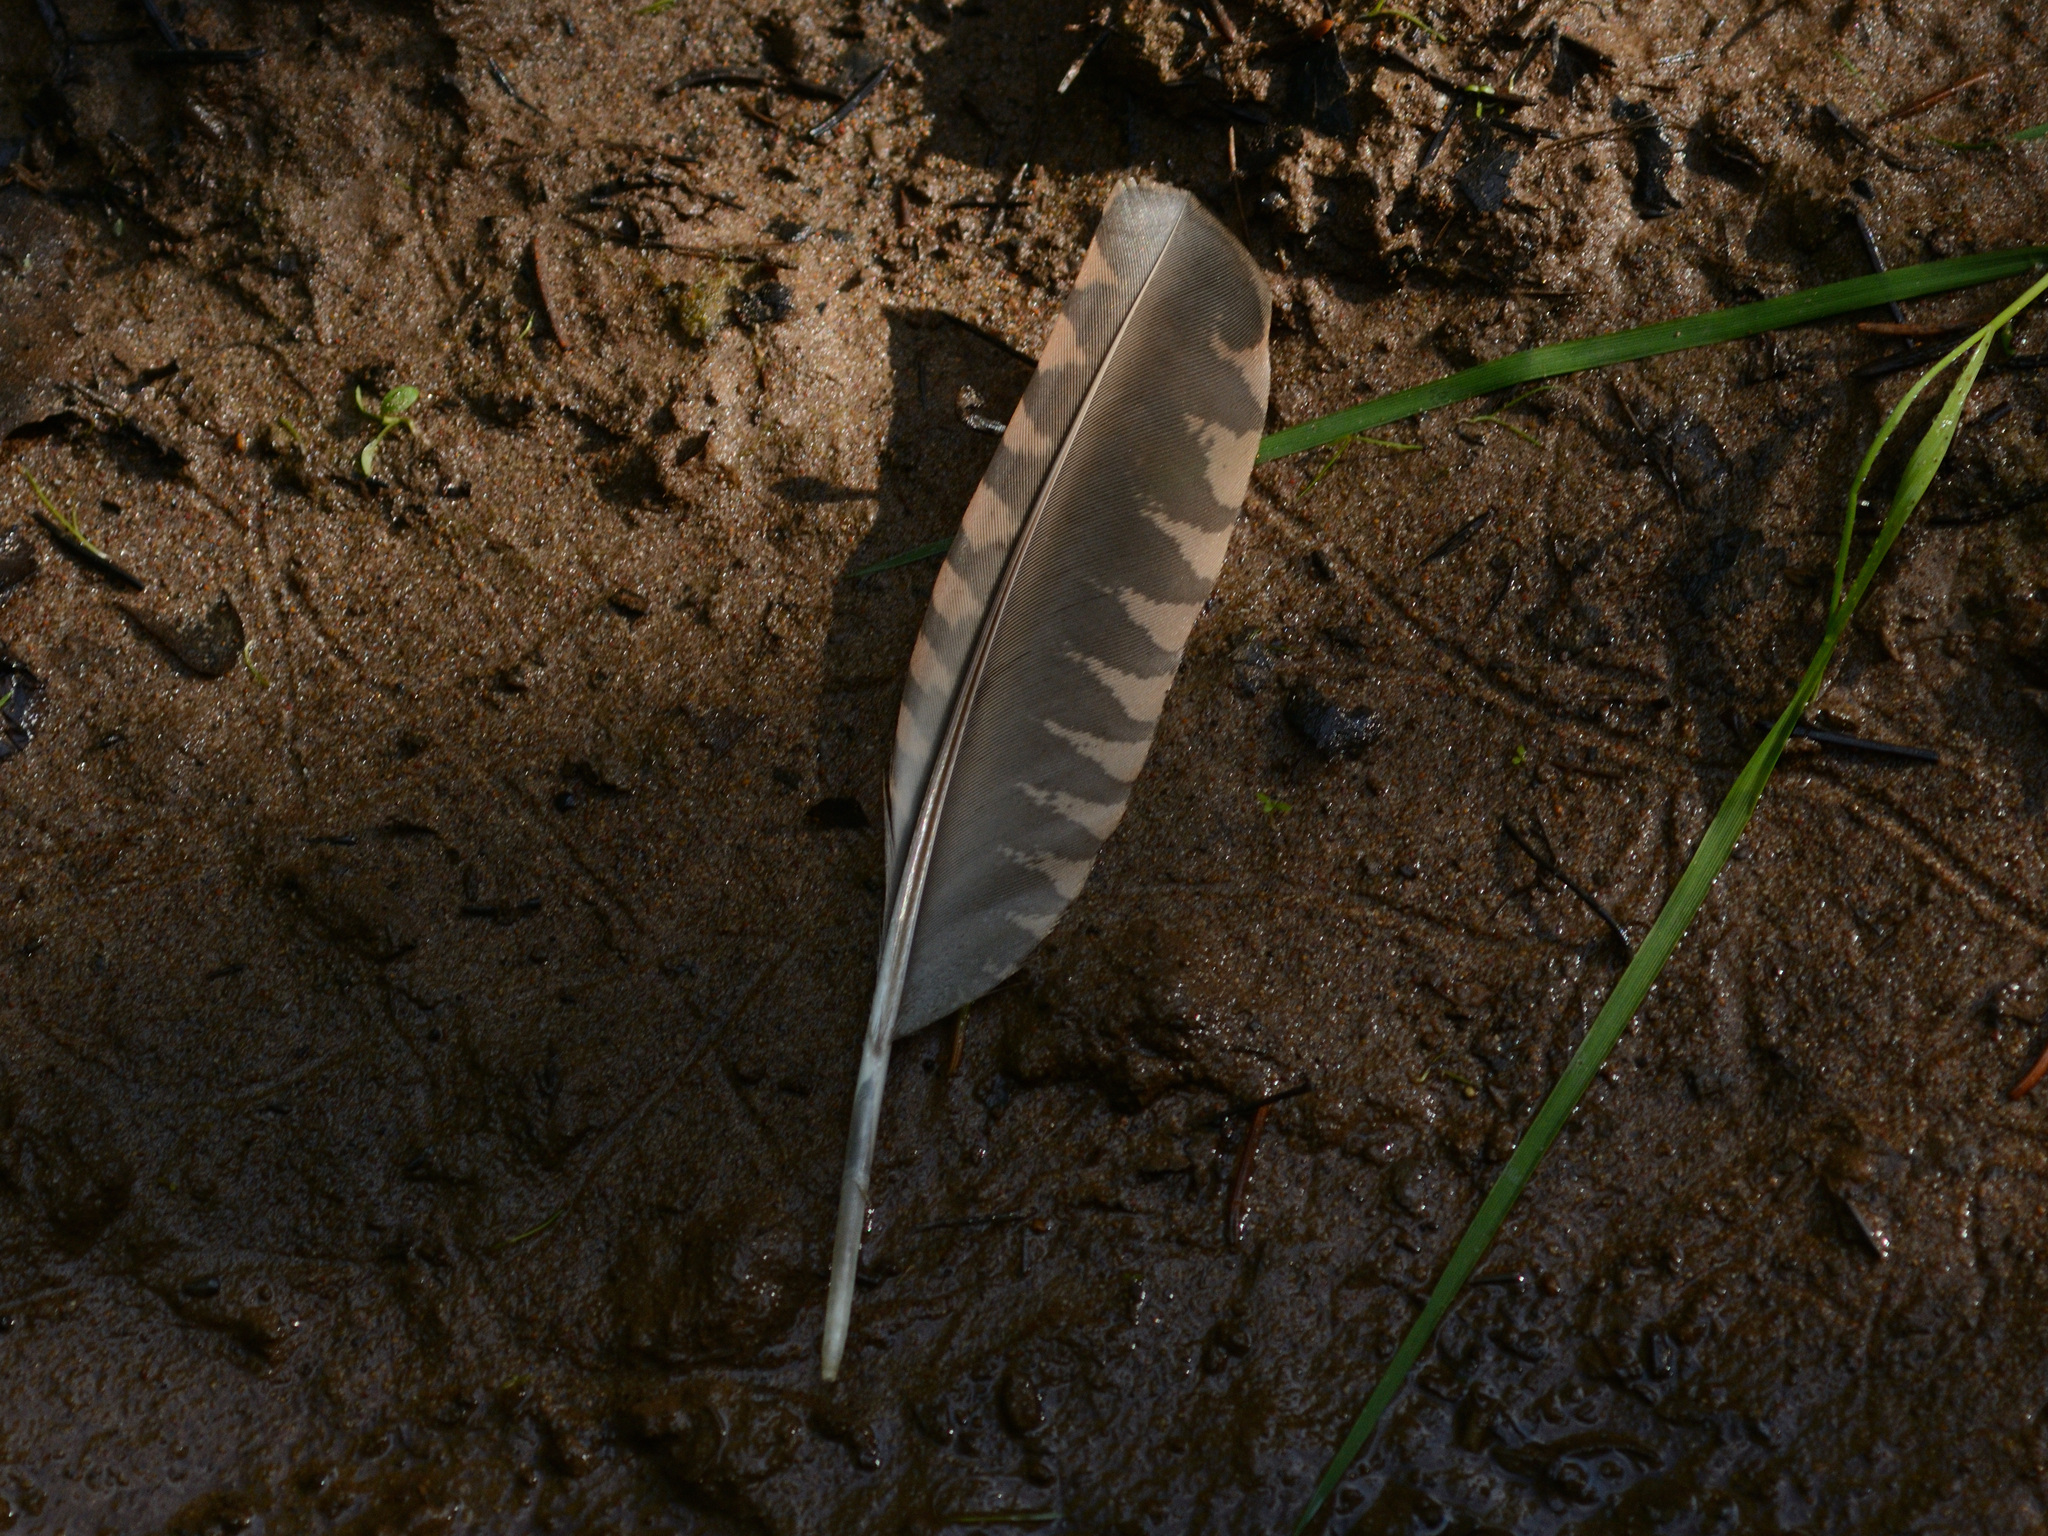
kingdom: Animalia
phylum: Chordata
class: Aves
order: Charadriiformes
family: Scolopacidae
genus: Scolopax
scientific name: Scolopax rusticola
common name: Eurasian woodcock
